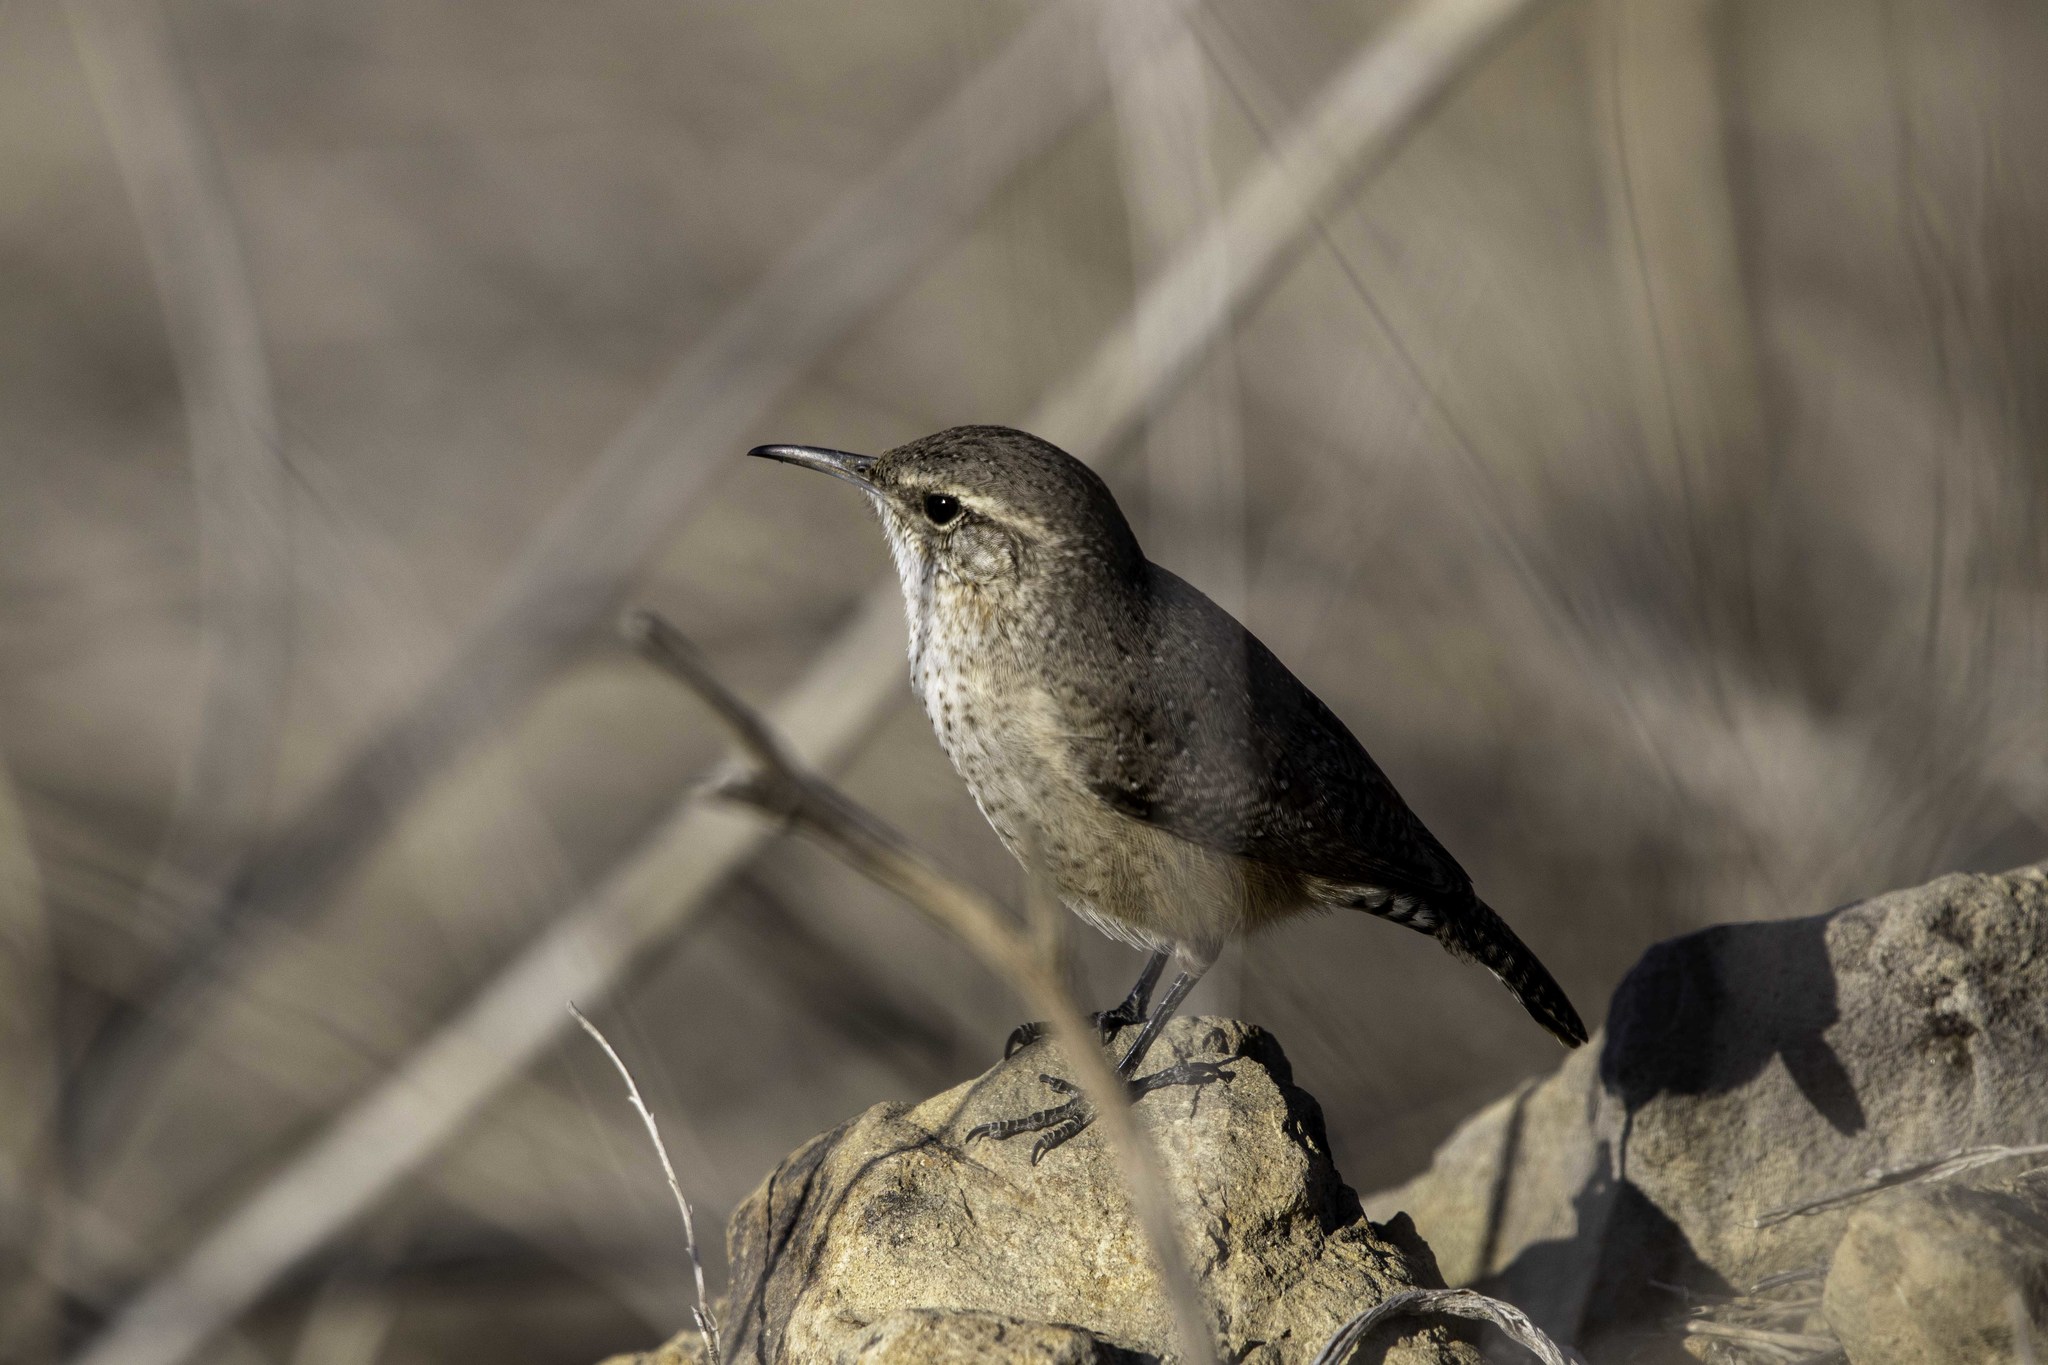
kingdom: Animalia
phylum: Chordata
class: Aves
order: Passeriformes
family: Troglodytidae
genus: Salpinctes
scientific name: Salpinctes obsoletus
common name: Rock wren
